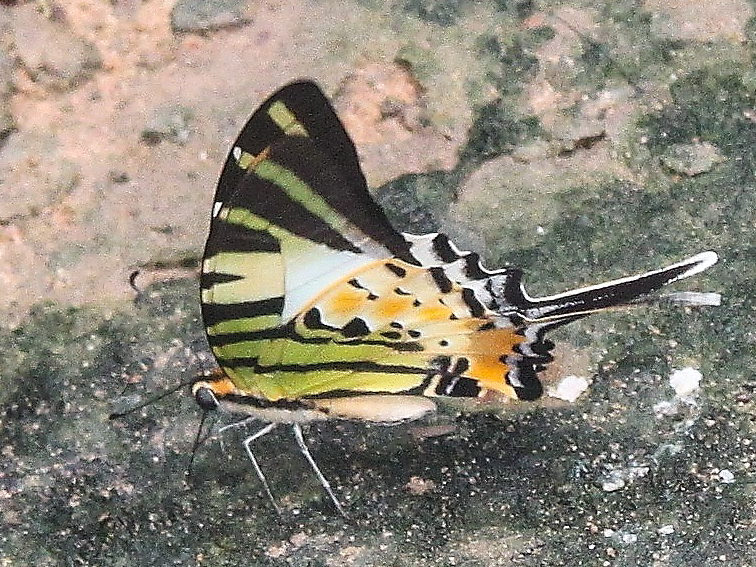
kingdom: Animalia
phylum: Arthropoda
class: Insecta
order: Lepidoptera
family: Papilionidae
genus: Graphium
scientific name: Graphium antiphates
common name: Fivebar swordtail
